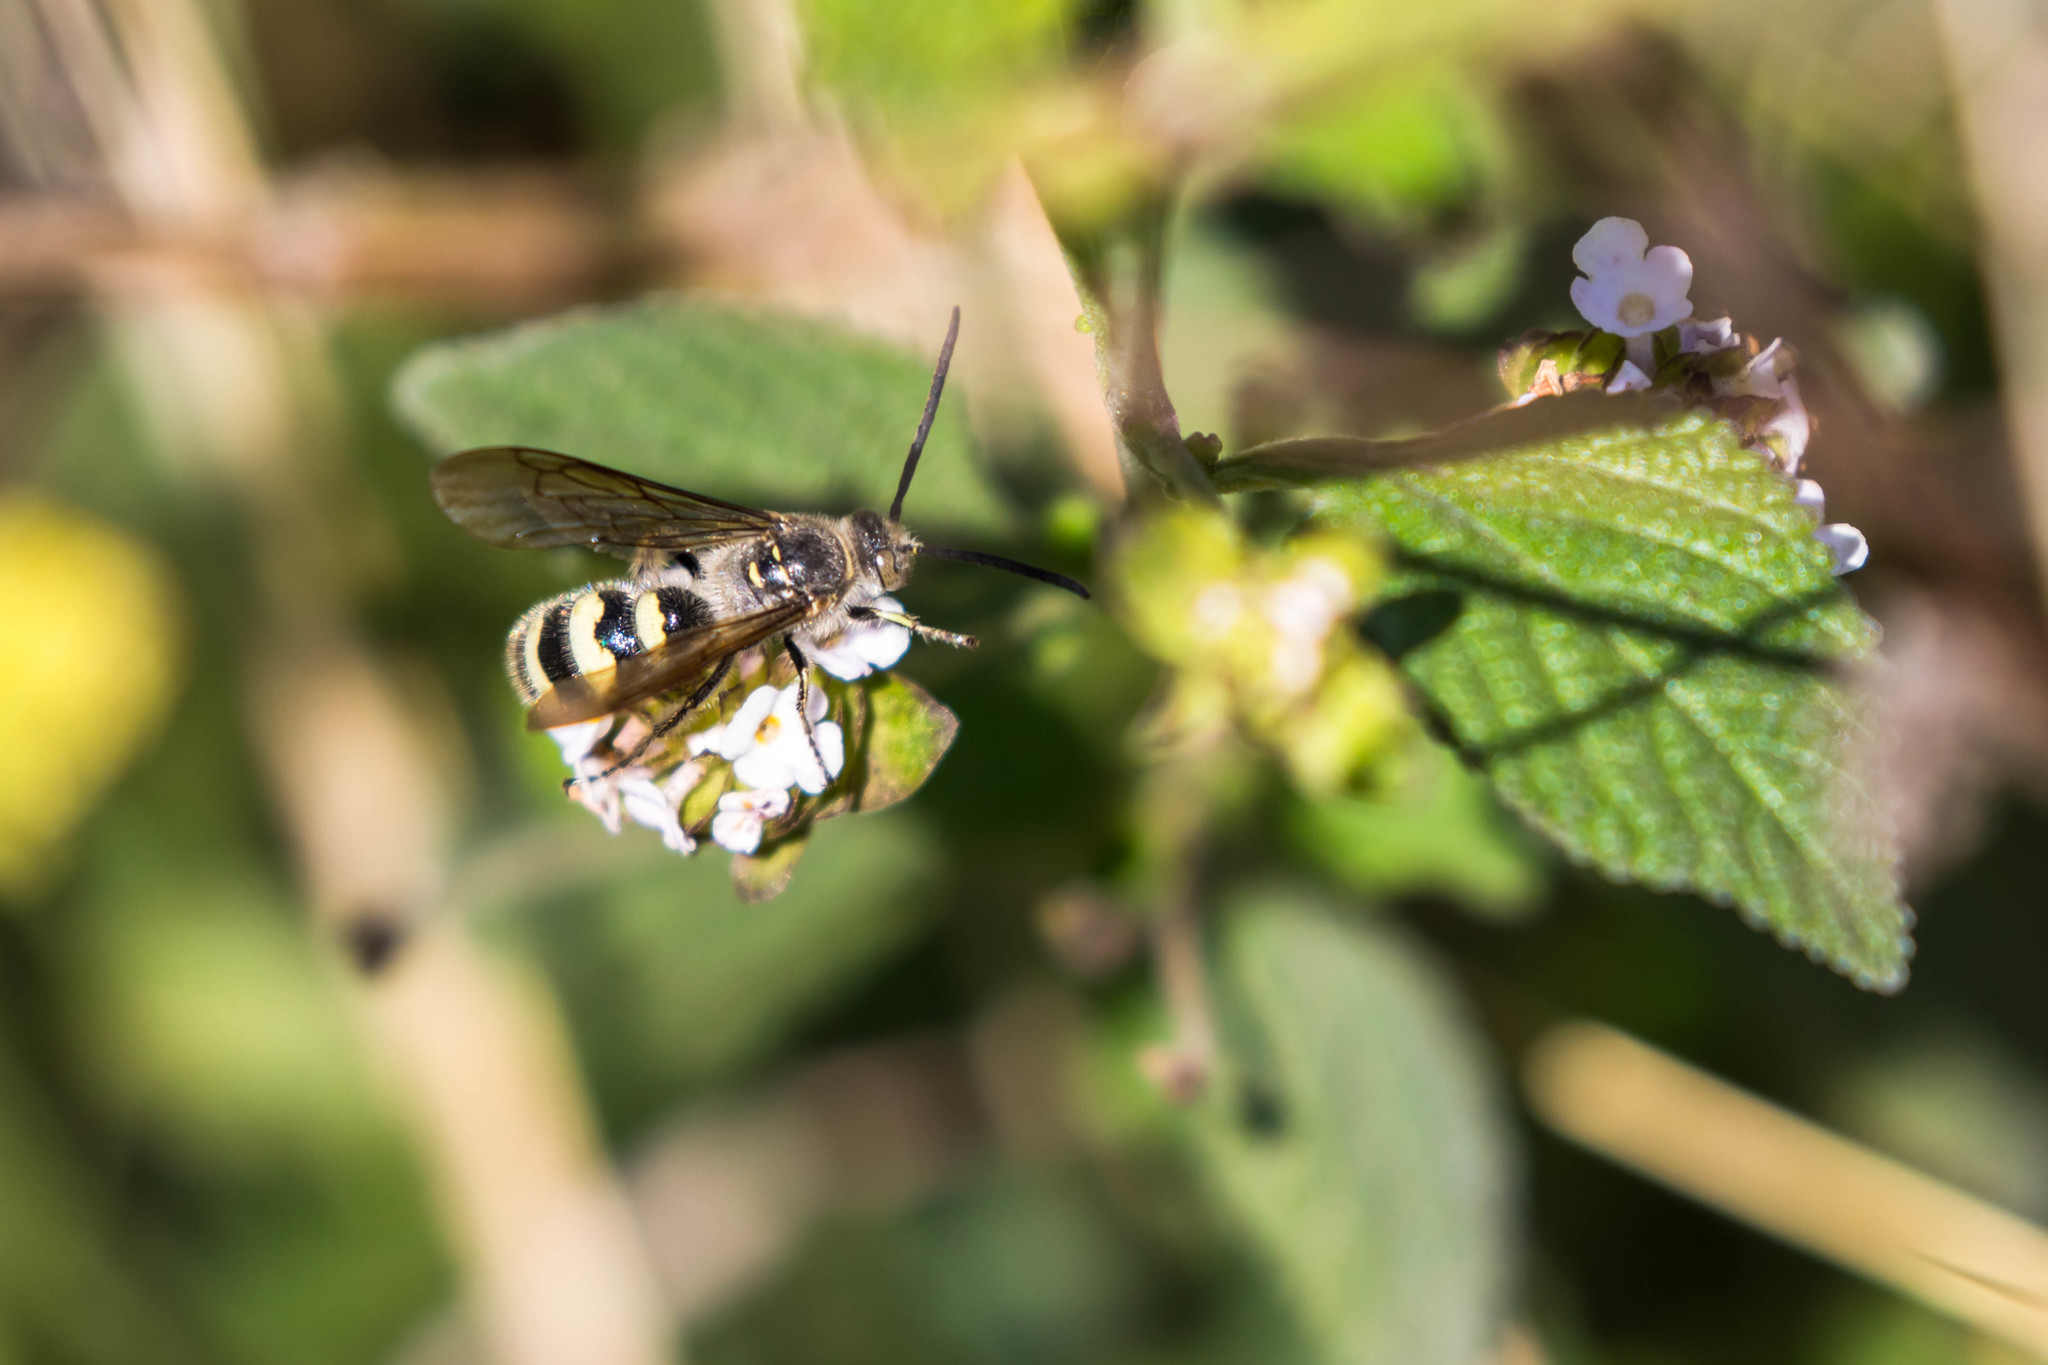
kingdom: Animalia
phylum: Arthropoda
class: Insecta
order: Hymenoptera
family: Scoliidae
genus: Dielis
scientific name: Dielis tolteca
